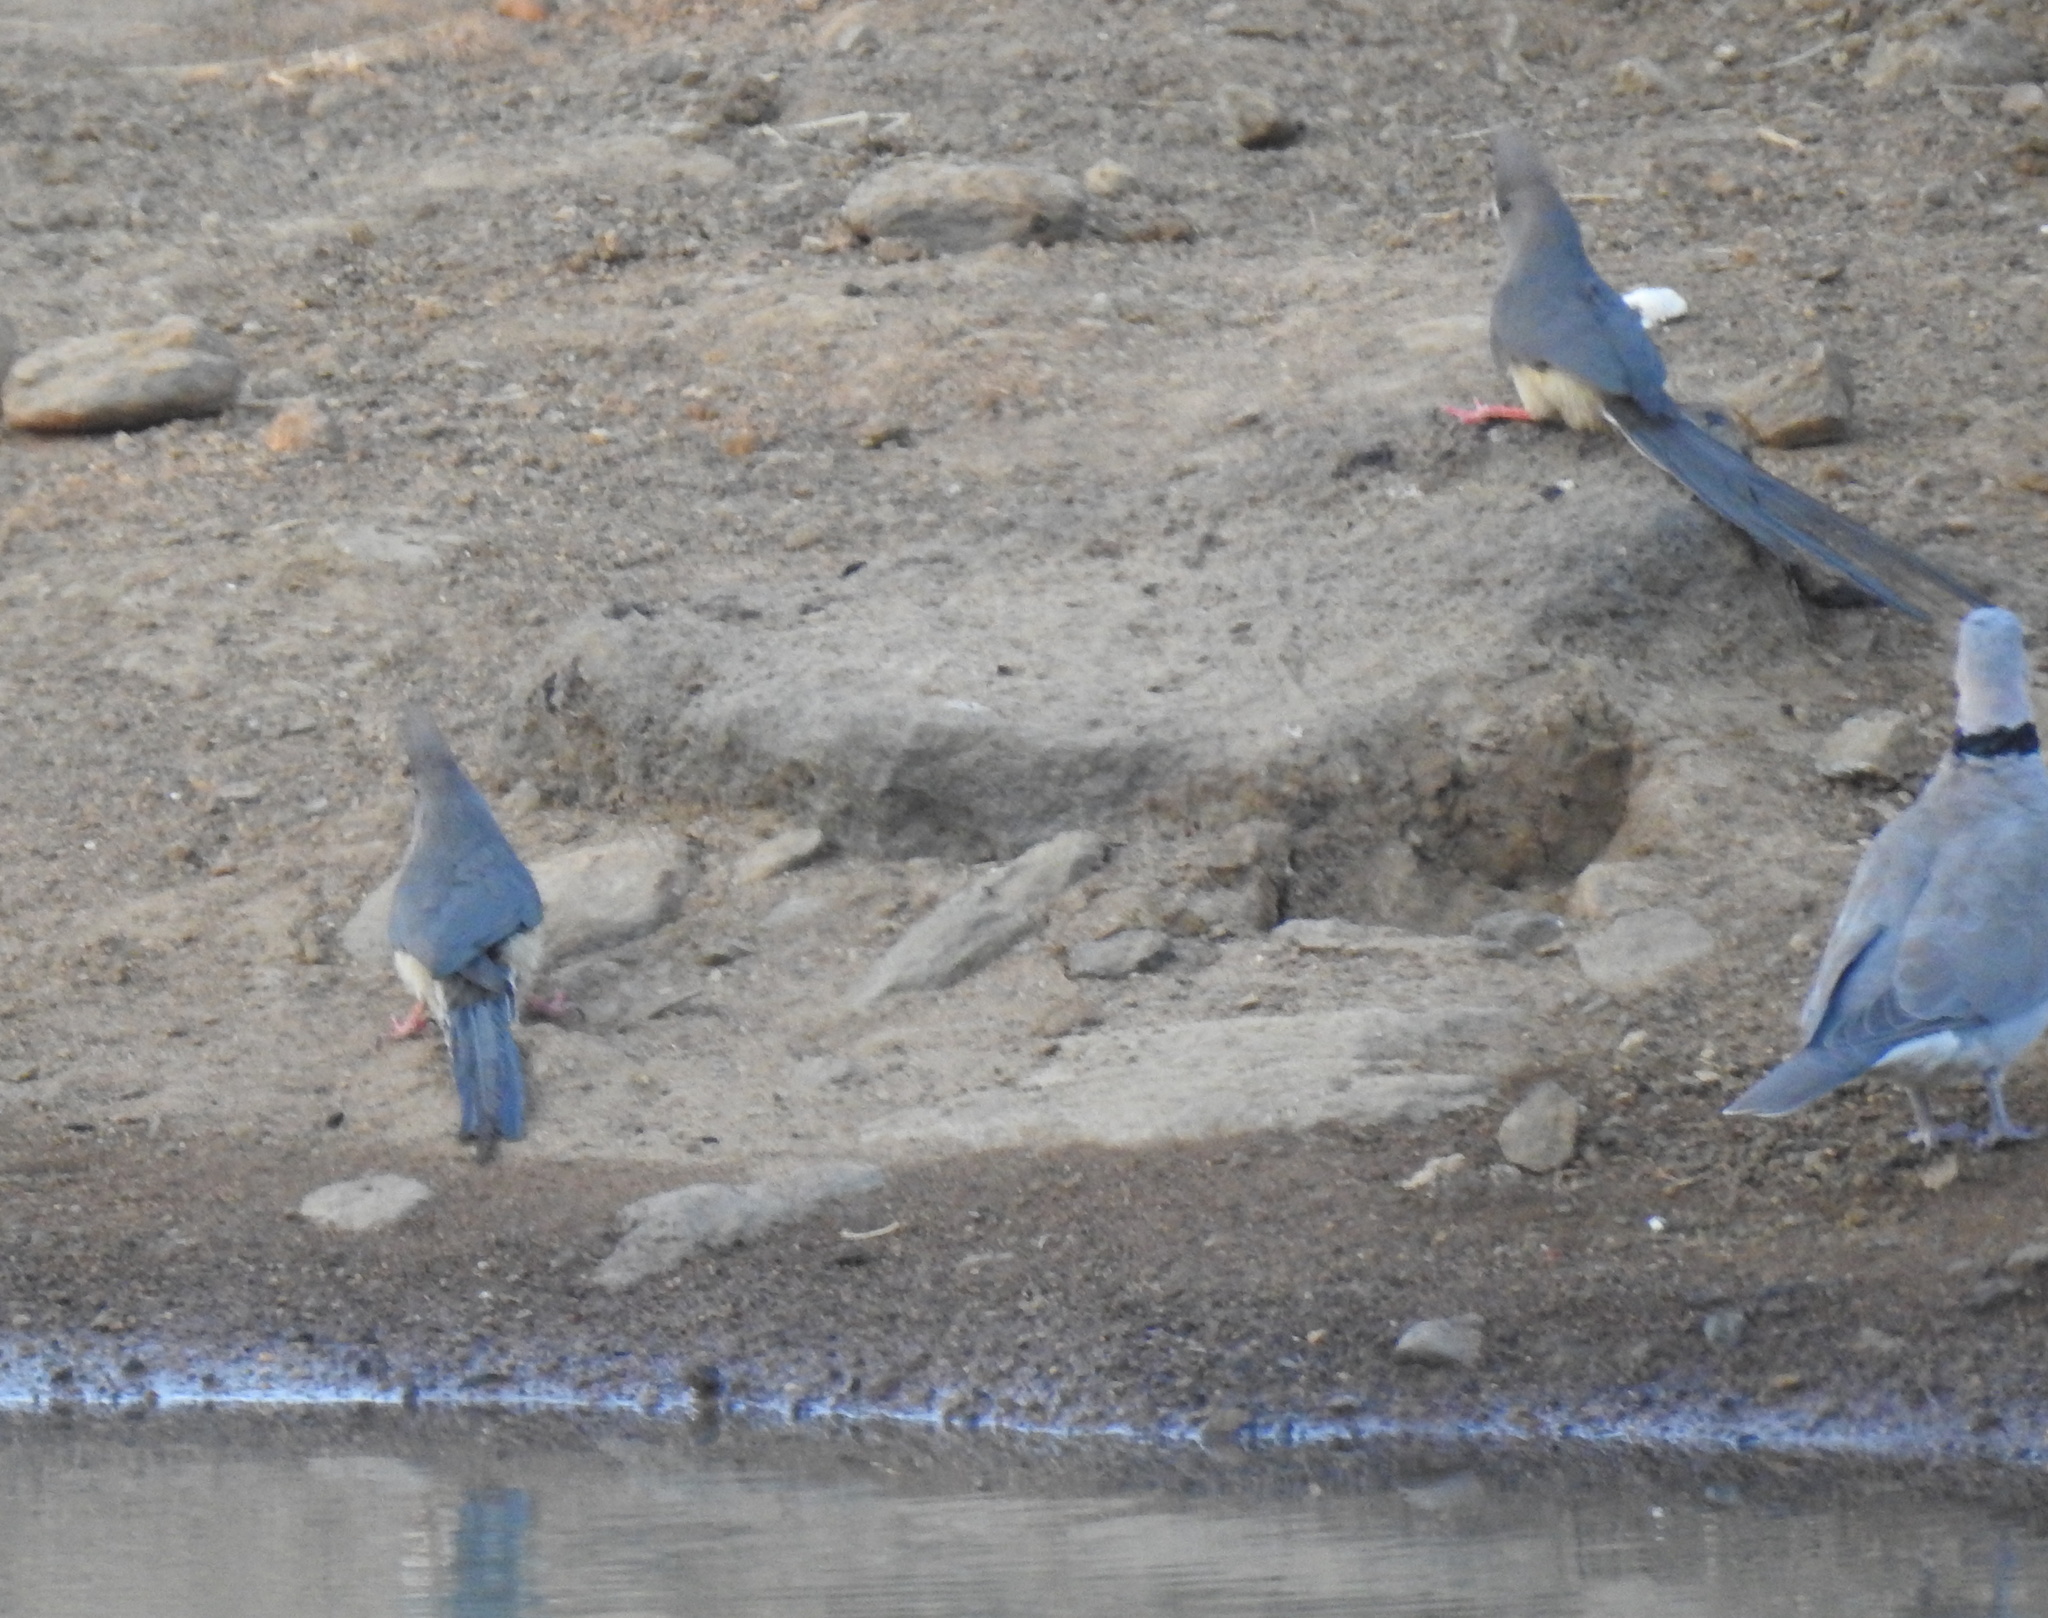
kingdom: Animalia
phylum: Chordata
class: Aves
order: Coliiformes
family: Coliidae
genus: Colius
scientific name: Colius colius
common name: White-backed mousebird
